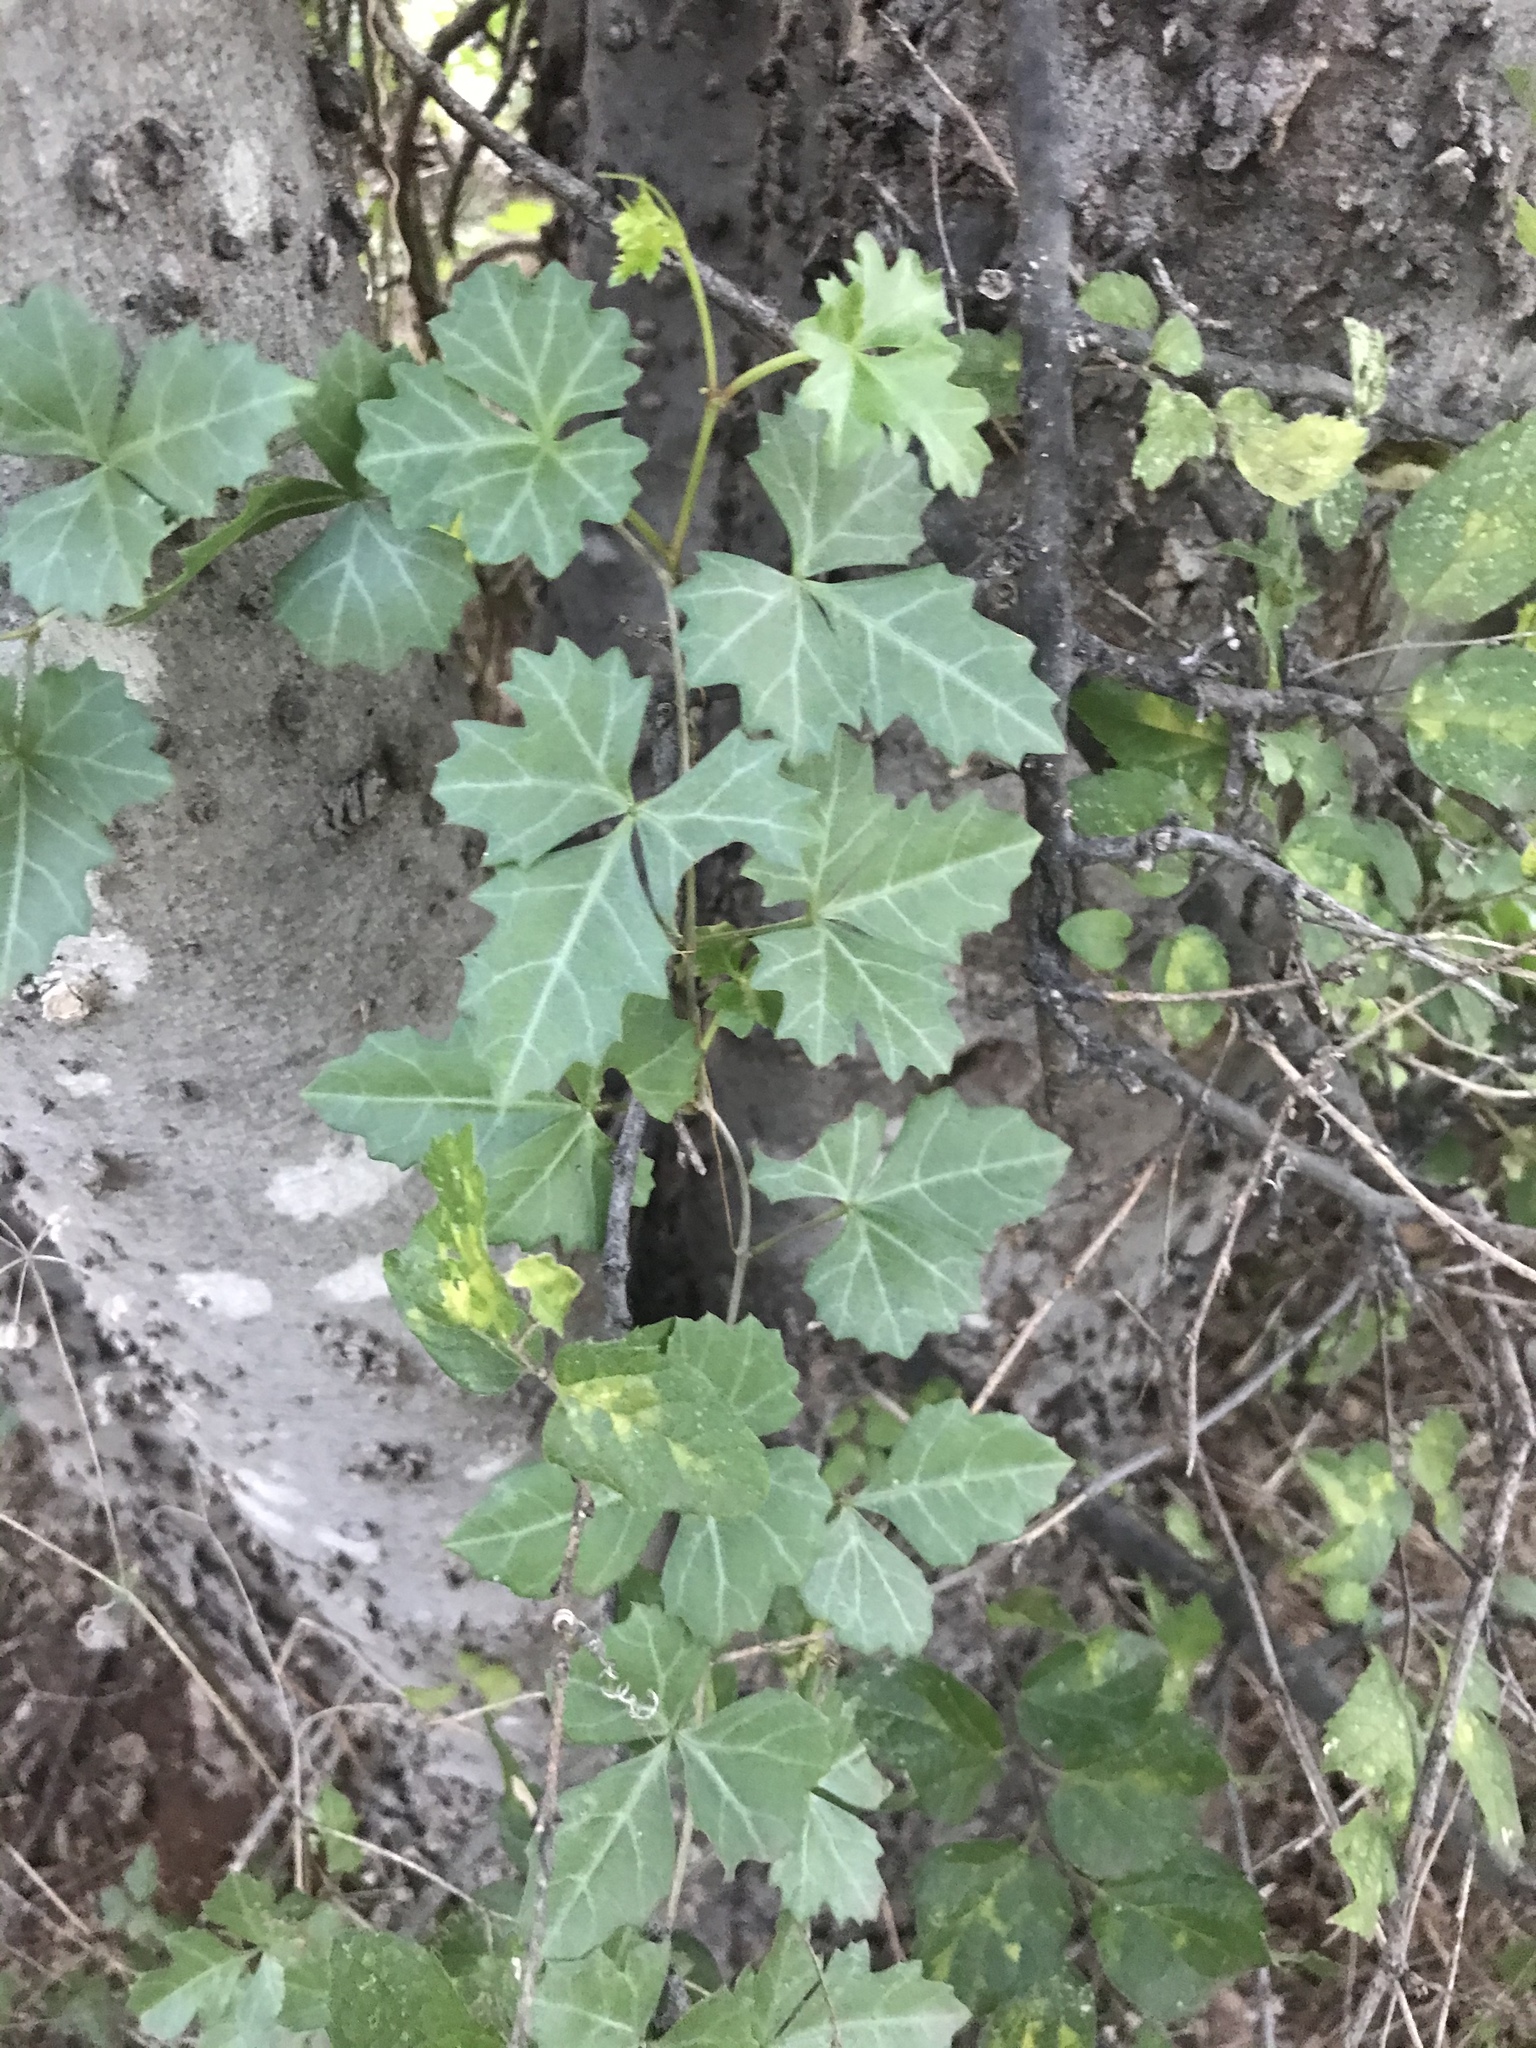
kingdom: Plantae
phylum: Tracheophyta
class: Magnoliopsida
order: Vitales
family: Vitaceae
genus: Cissus
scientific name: Cissus trifoliata
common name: Vine-sorrel
